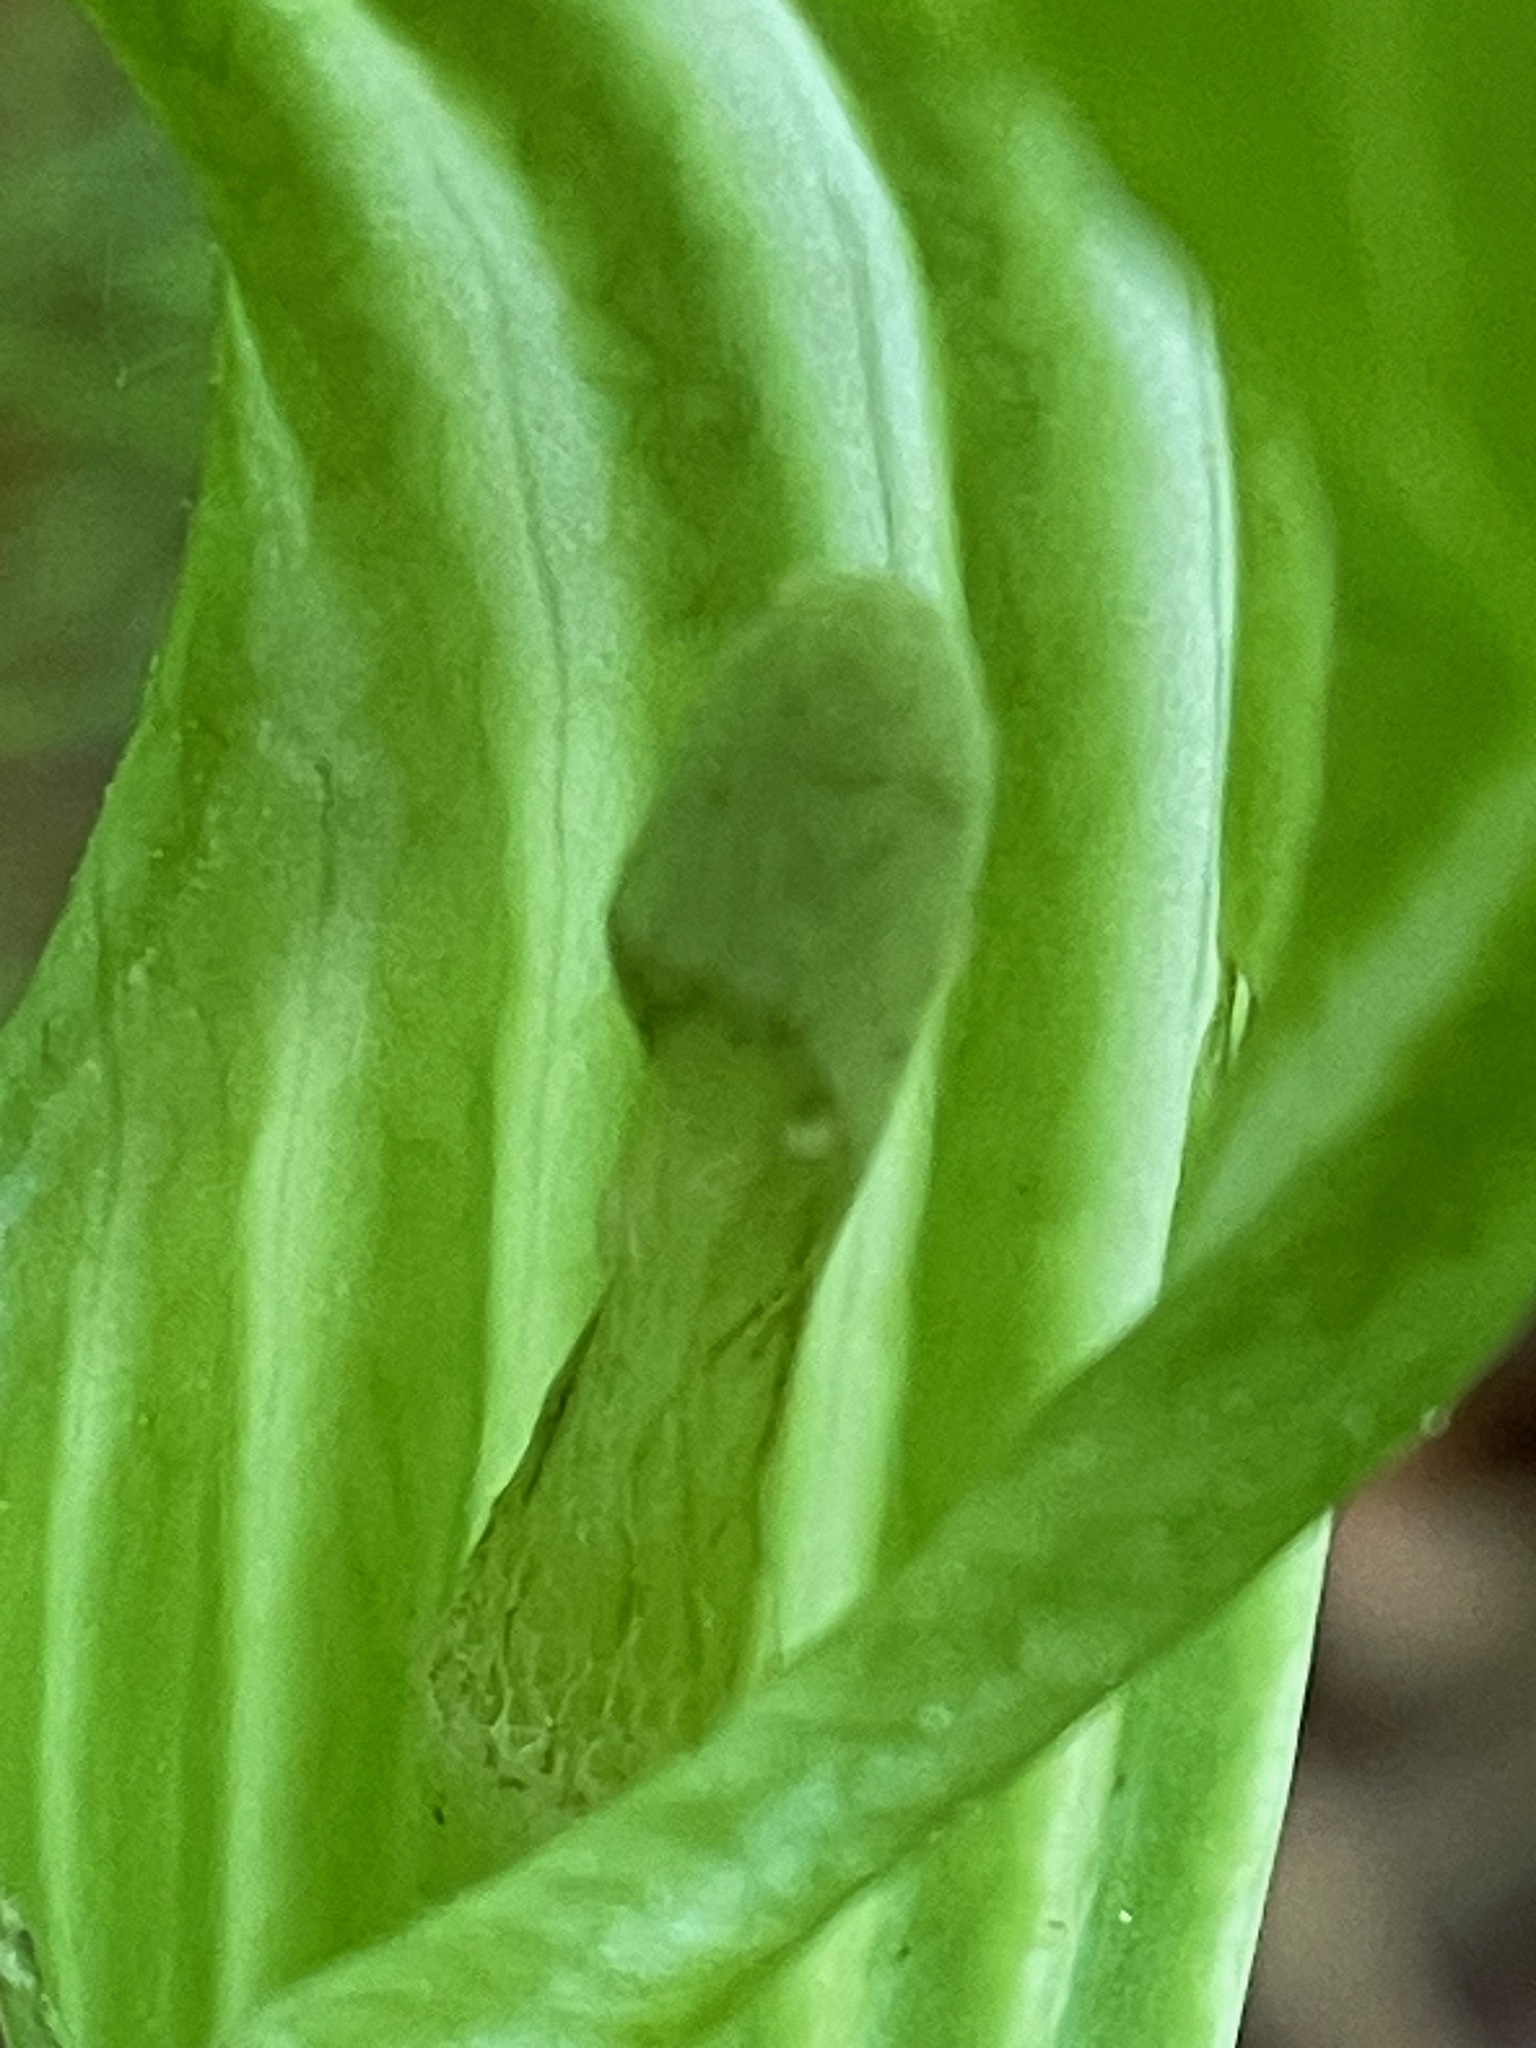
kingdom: Plantae
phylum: Tracheophyta
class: Liliopsida
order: Alismatales
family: Araceae
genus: Arisaema
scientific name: Arisaema stewardsonii
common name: Swamp jack-in-the-pulpit
